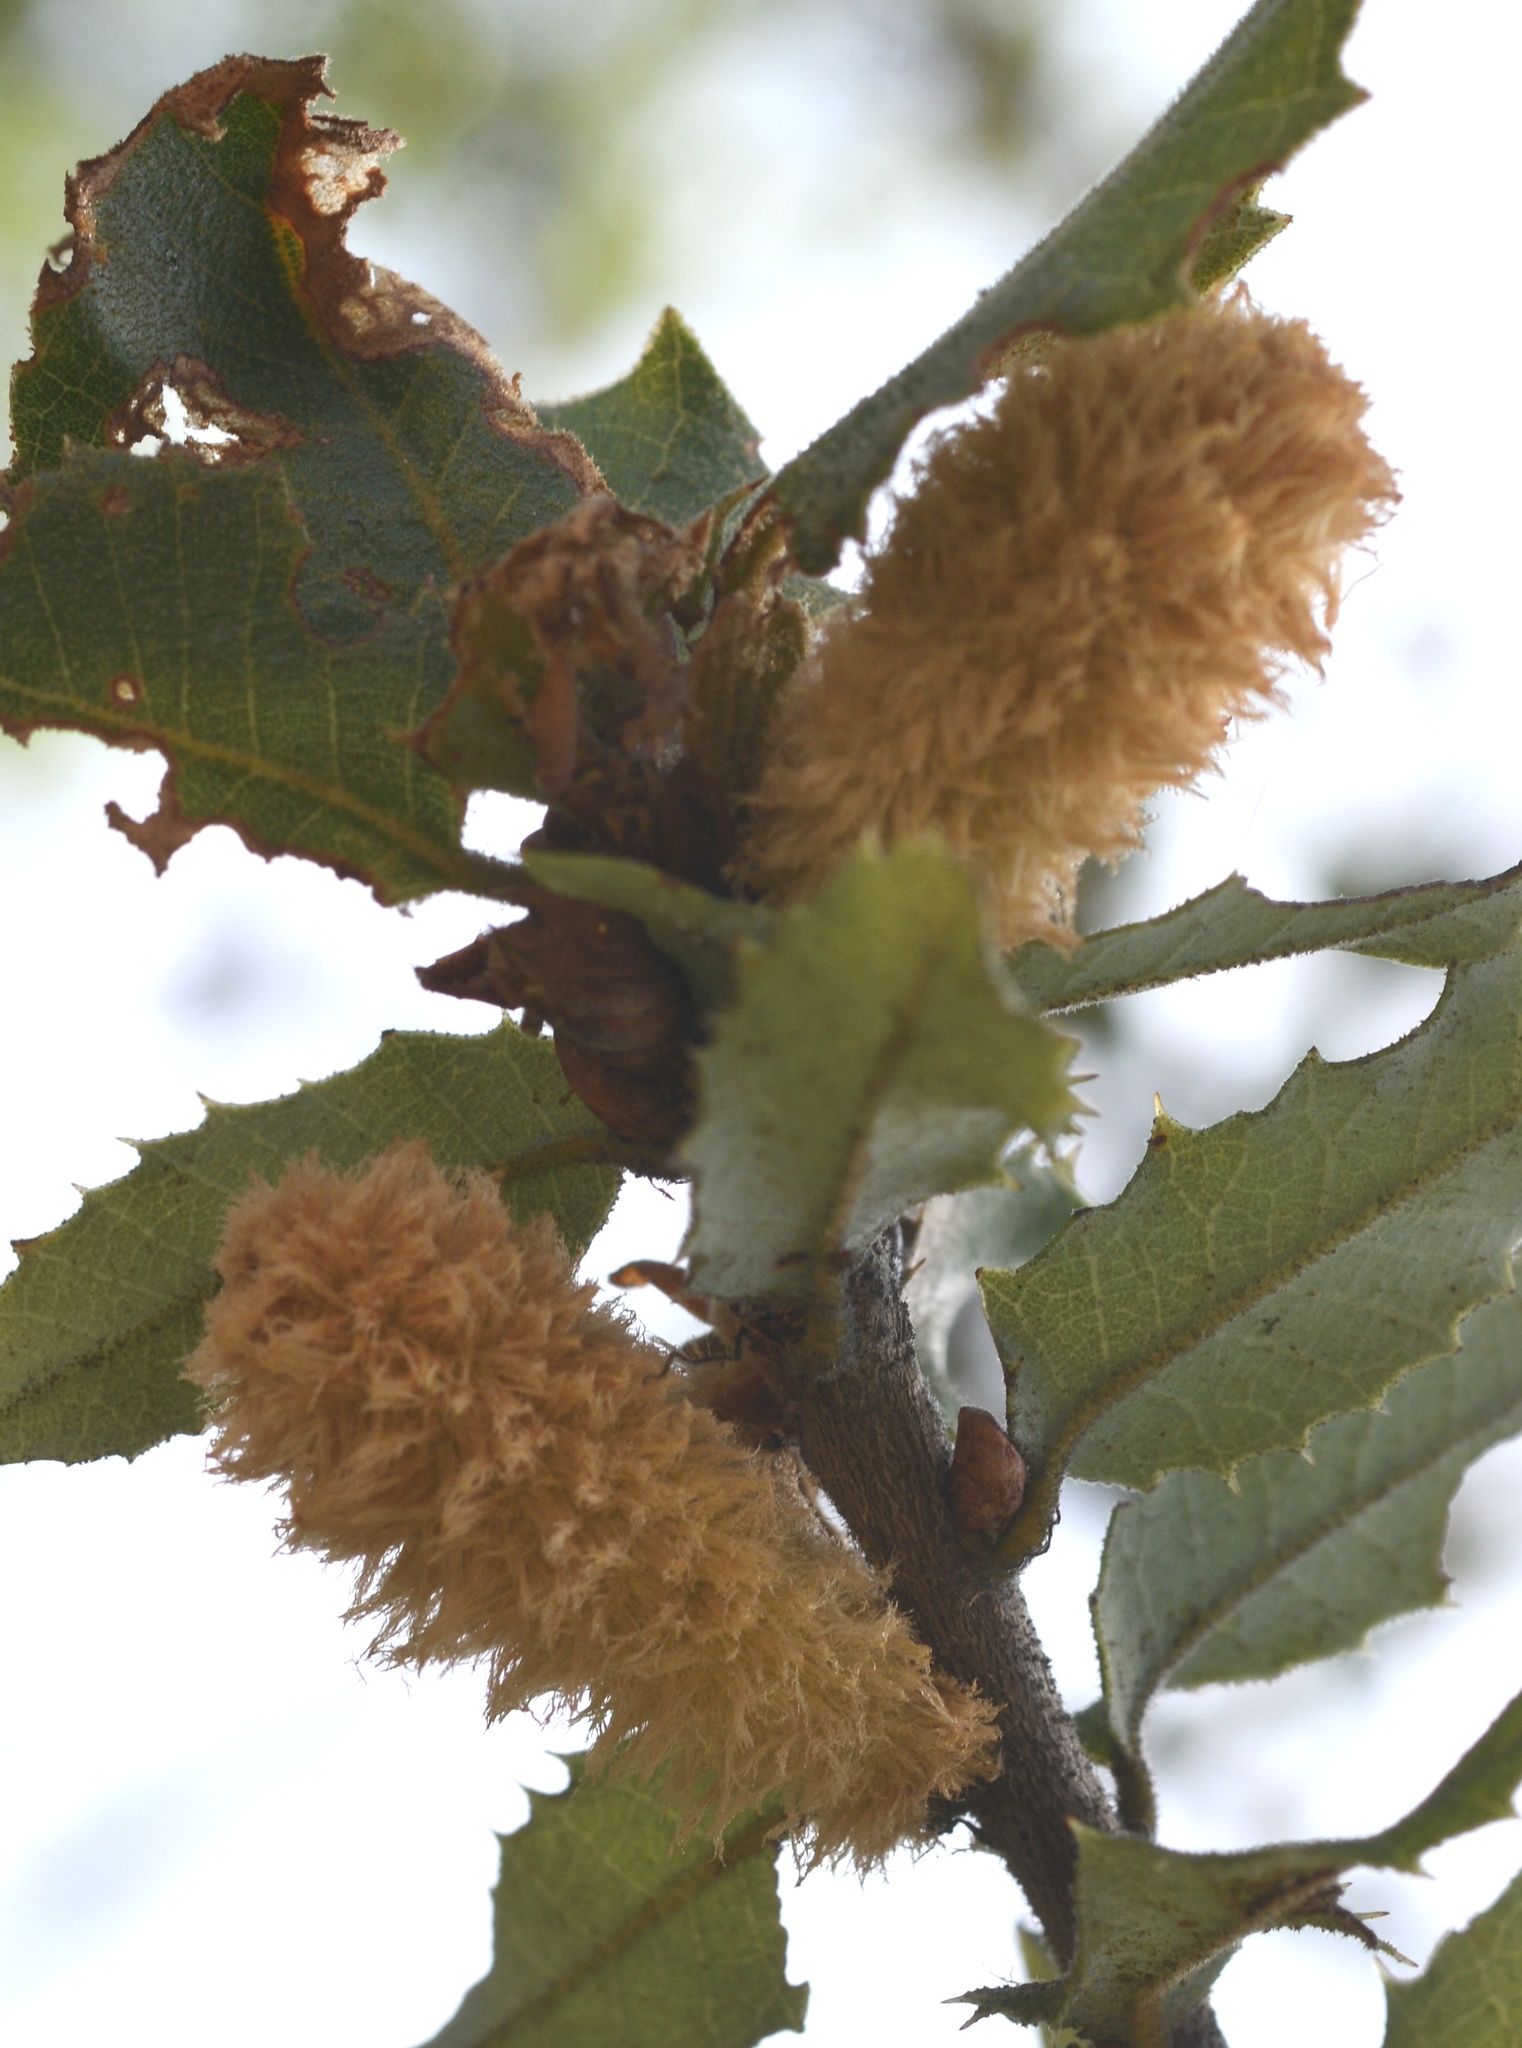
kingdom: Animalia
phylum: Arthropoda
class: Insecta
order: Hymenoptera
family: Cynipidae
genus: Heteroecus
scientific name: Heteroecus
